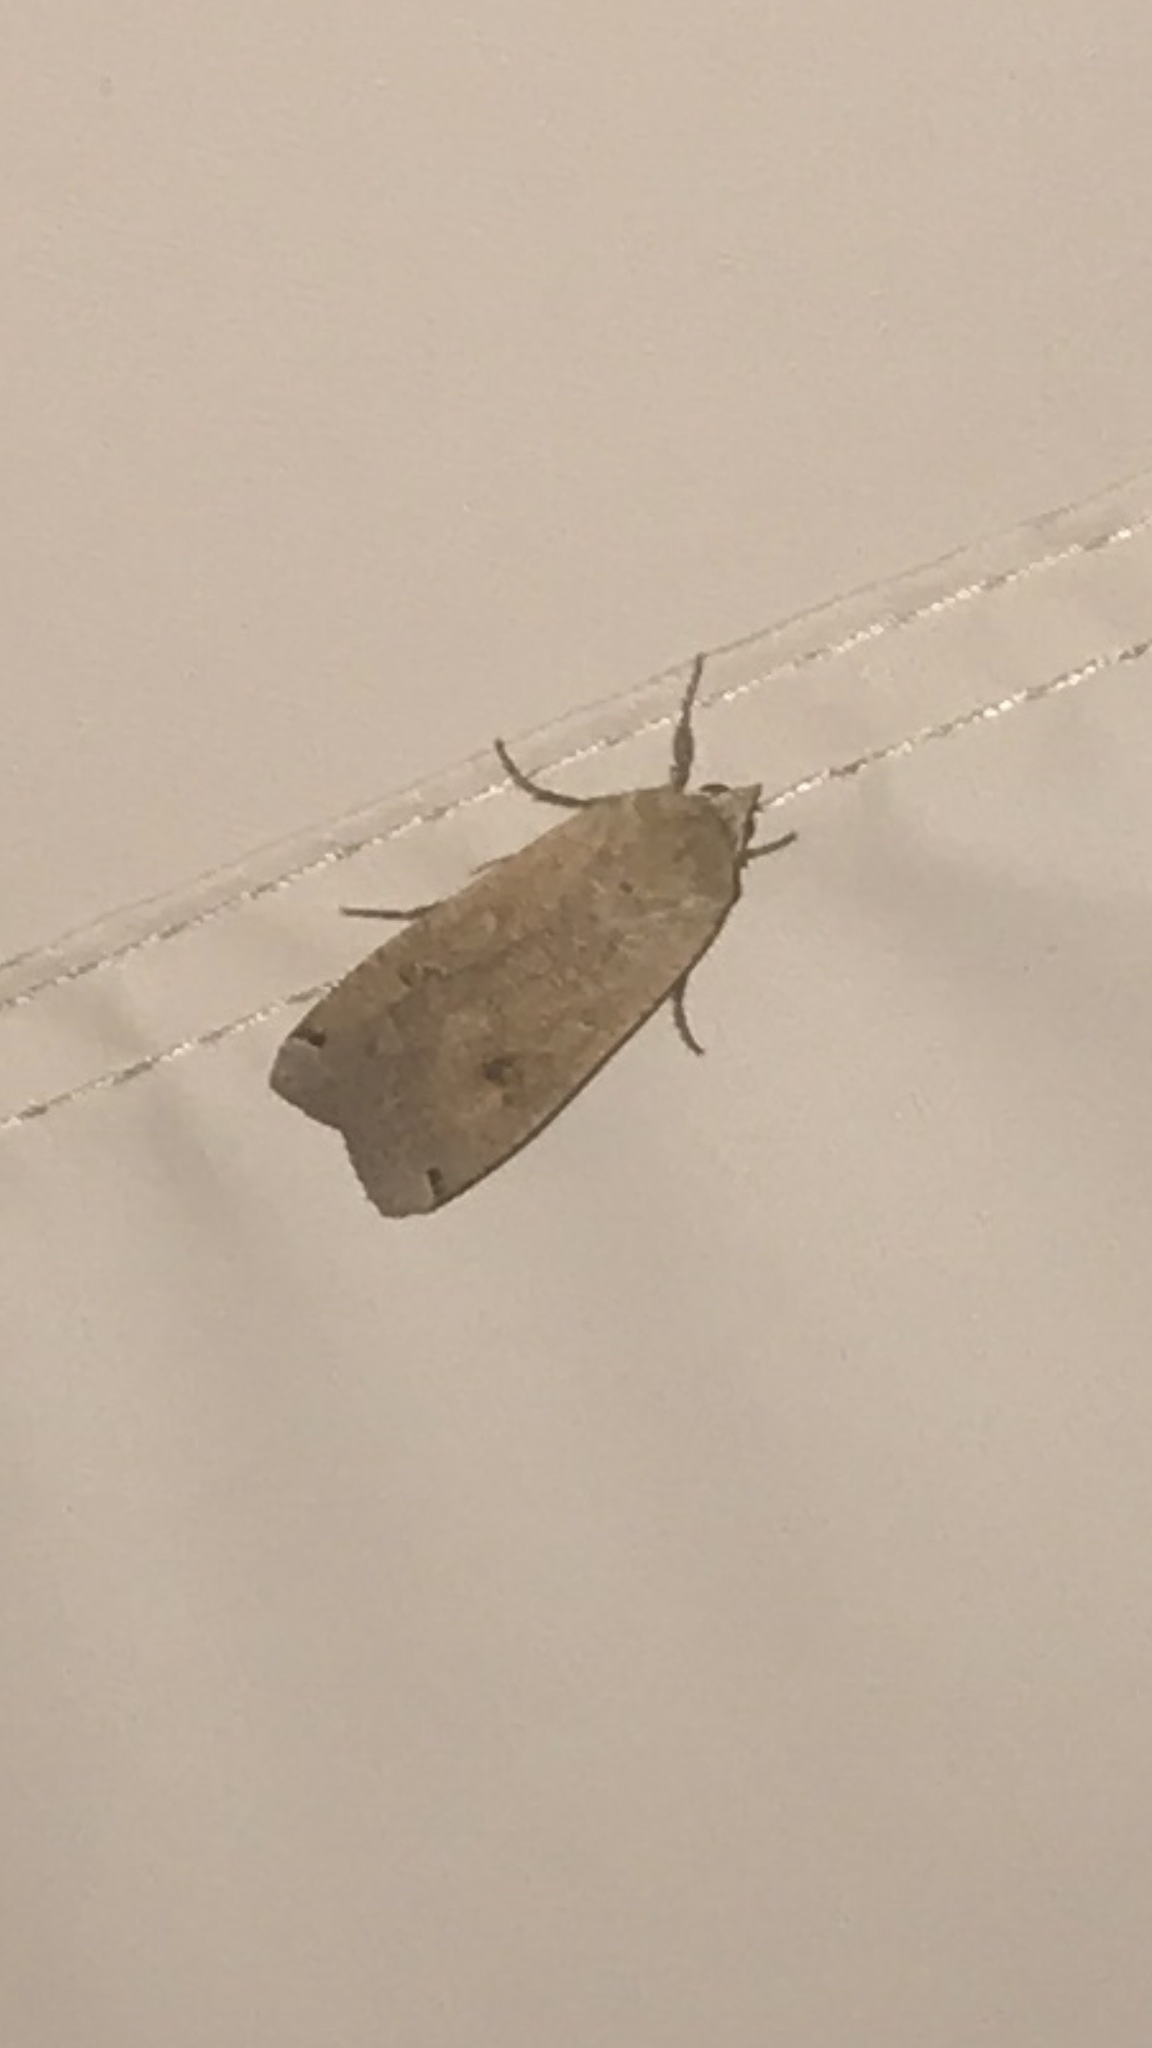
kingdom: Animalia
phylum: Arthropoda
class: Insecta
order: Lepidoptera
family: Noctuidae
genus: Noctua
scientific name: Noctua pronuba
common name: Large yellow underwing
